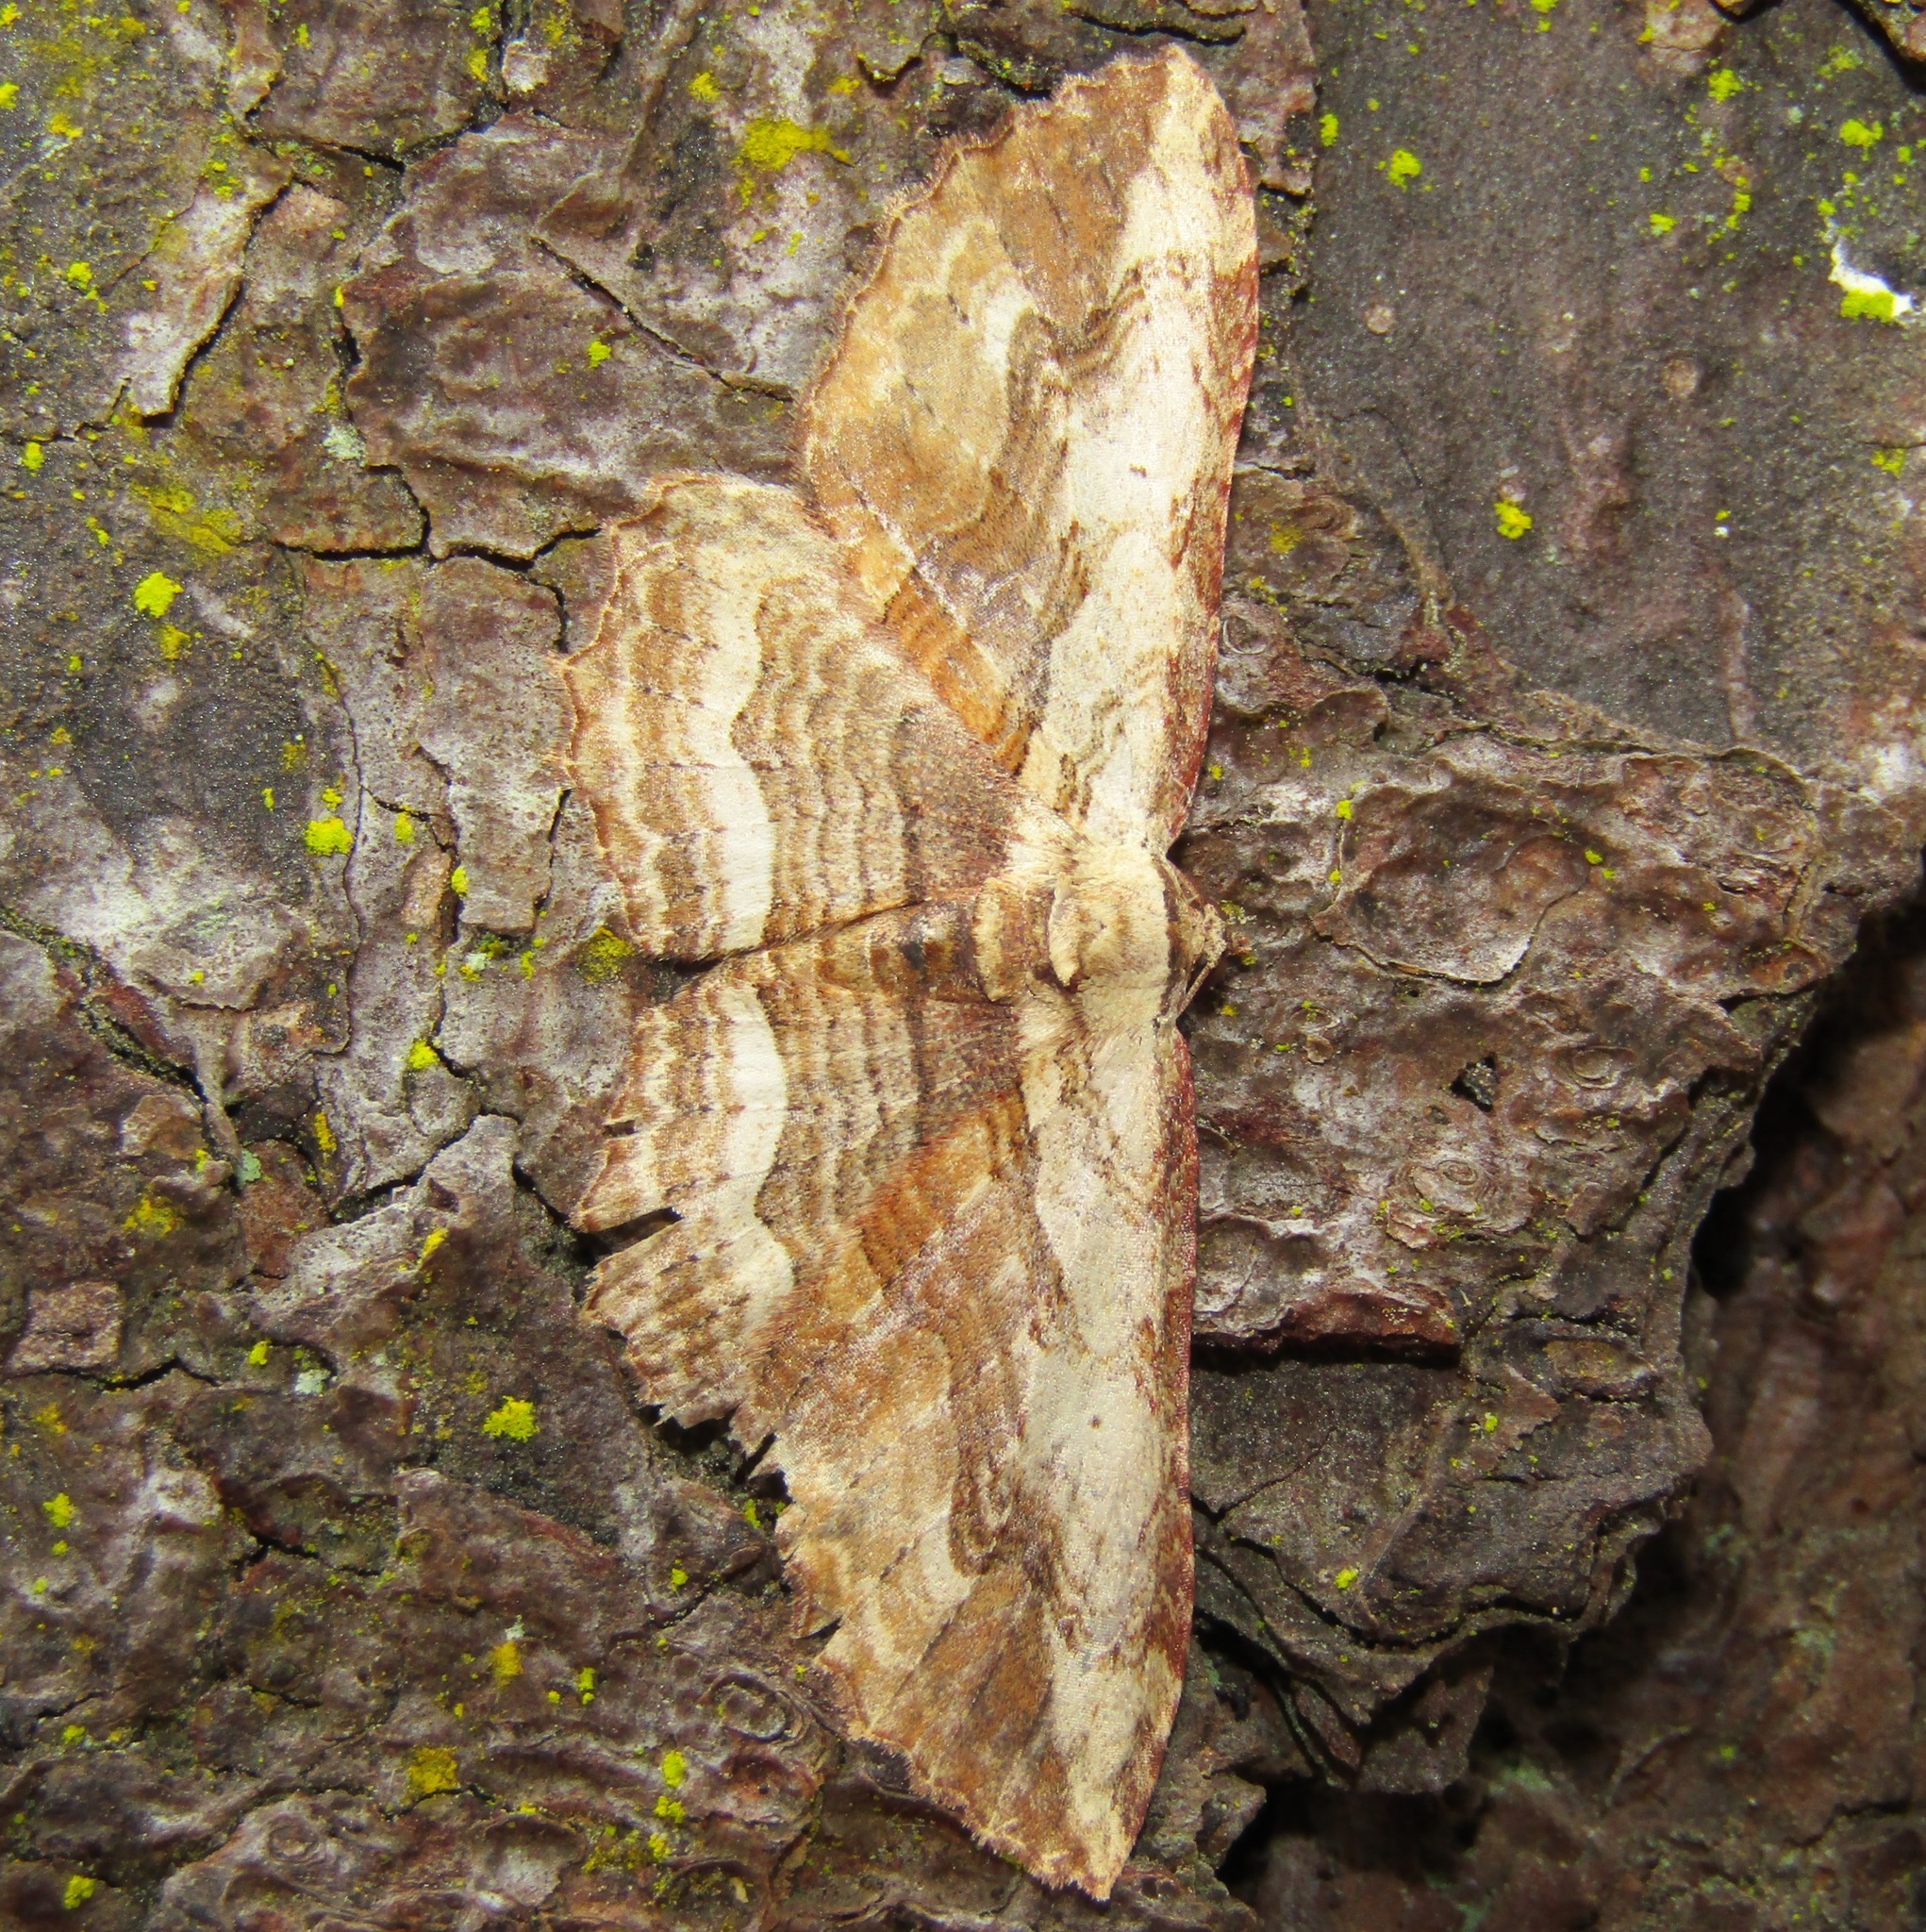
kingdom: Animalia
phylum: Arthropoda
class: Insecta
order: Lepidoptera
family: Geometridae
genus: Austrocidaria
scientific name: Austrocidaria bipartita
